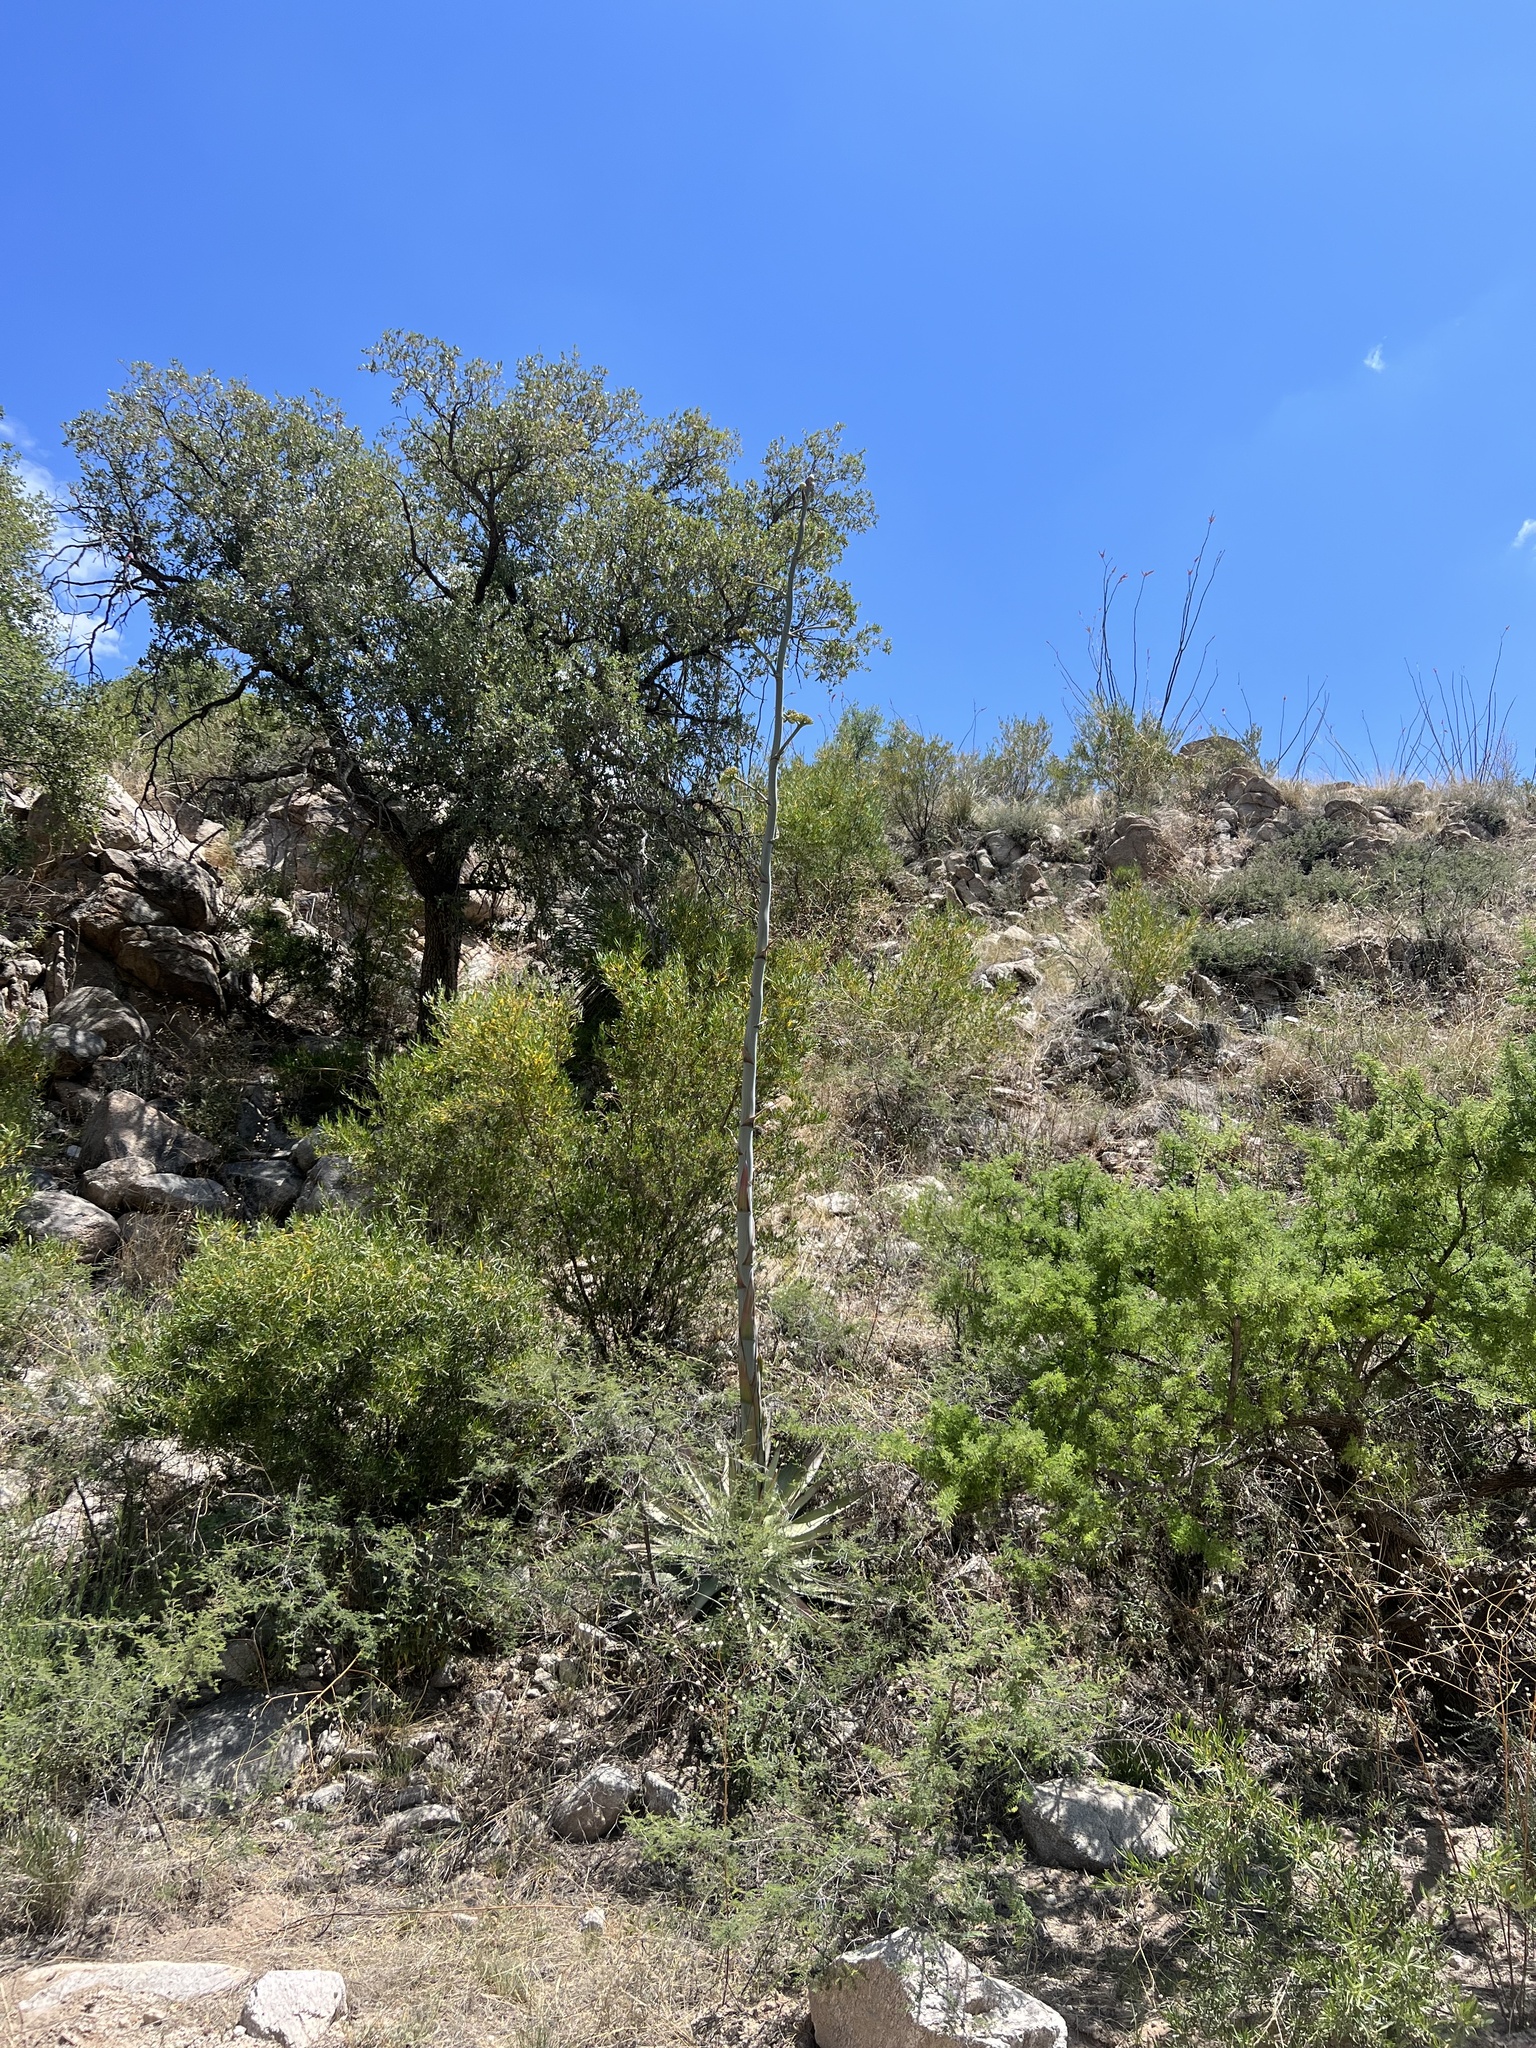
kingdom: Plantae
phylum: Tracheophyta
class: Liliopsida
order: Asparagales
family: Asparagaceae
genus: Agave
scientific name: Agave palmeri
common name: Palmer agave
